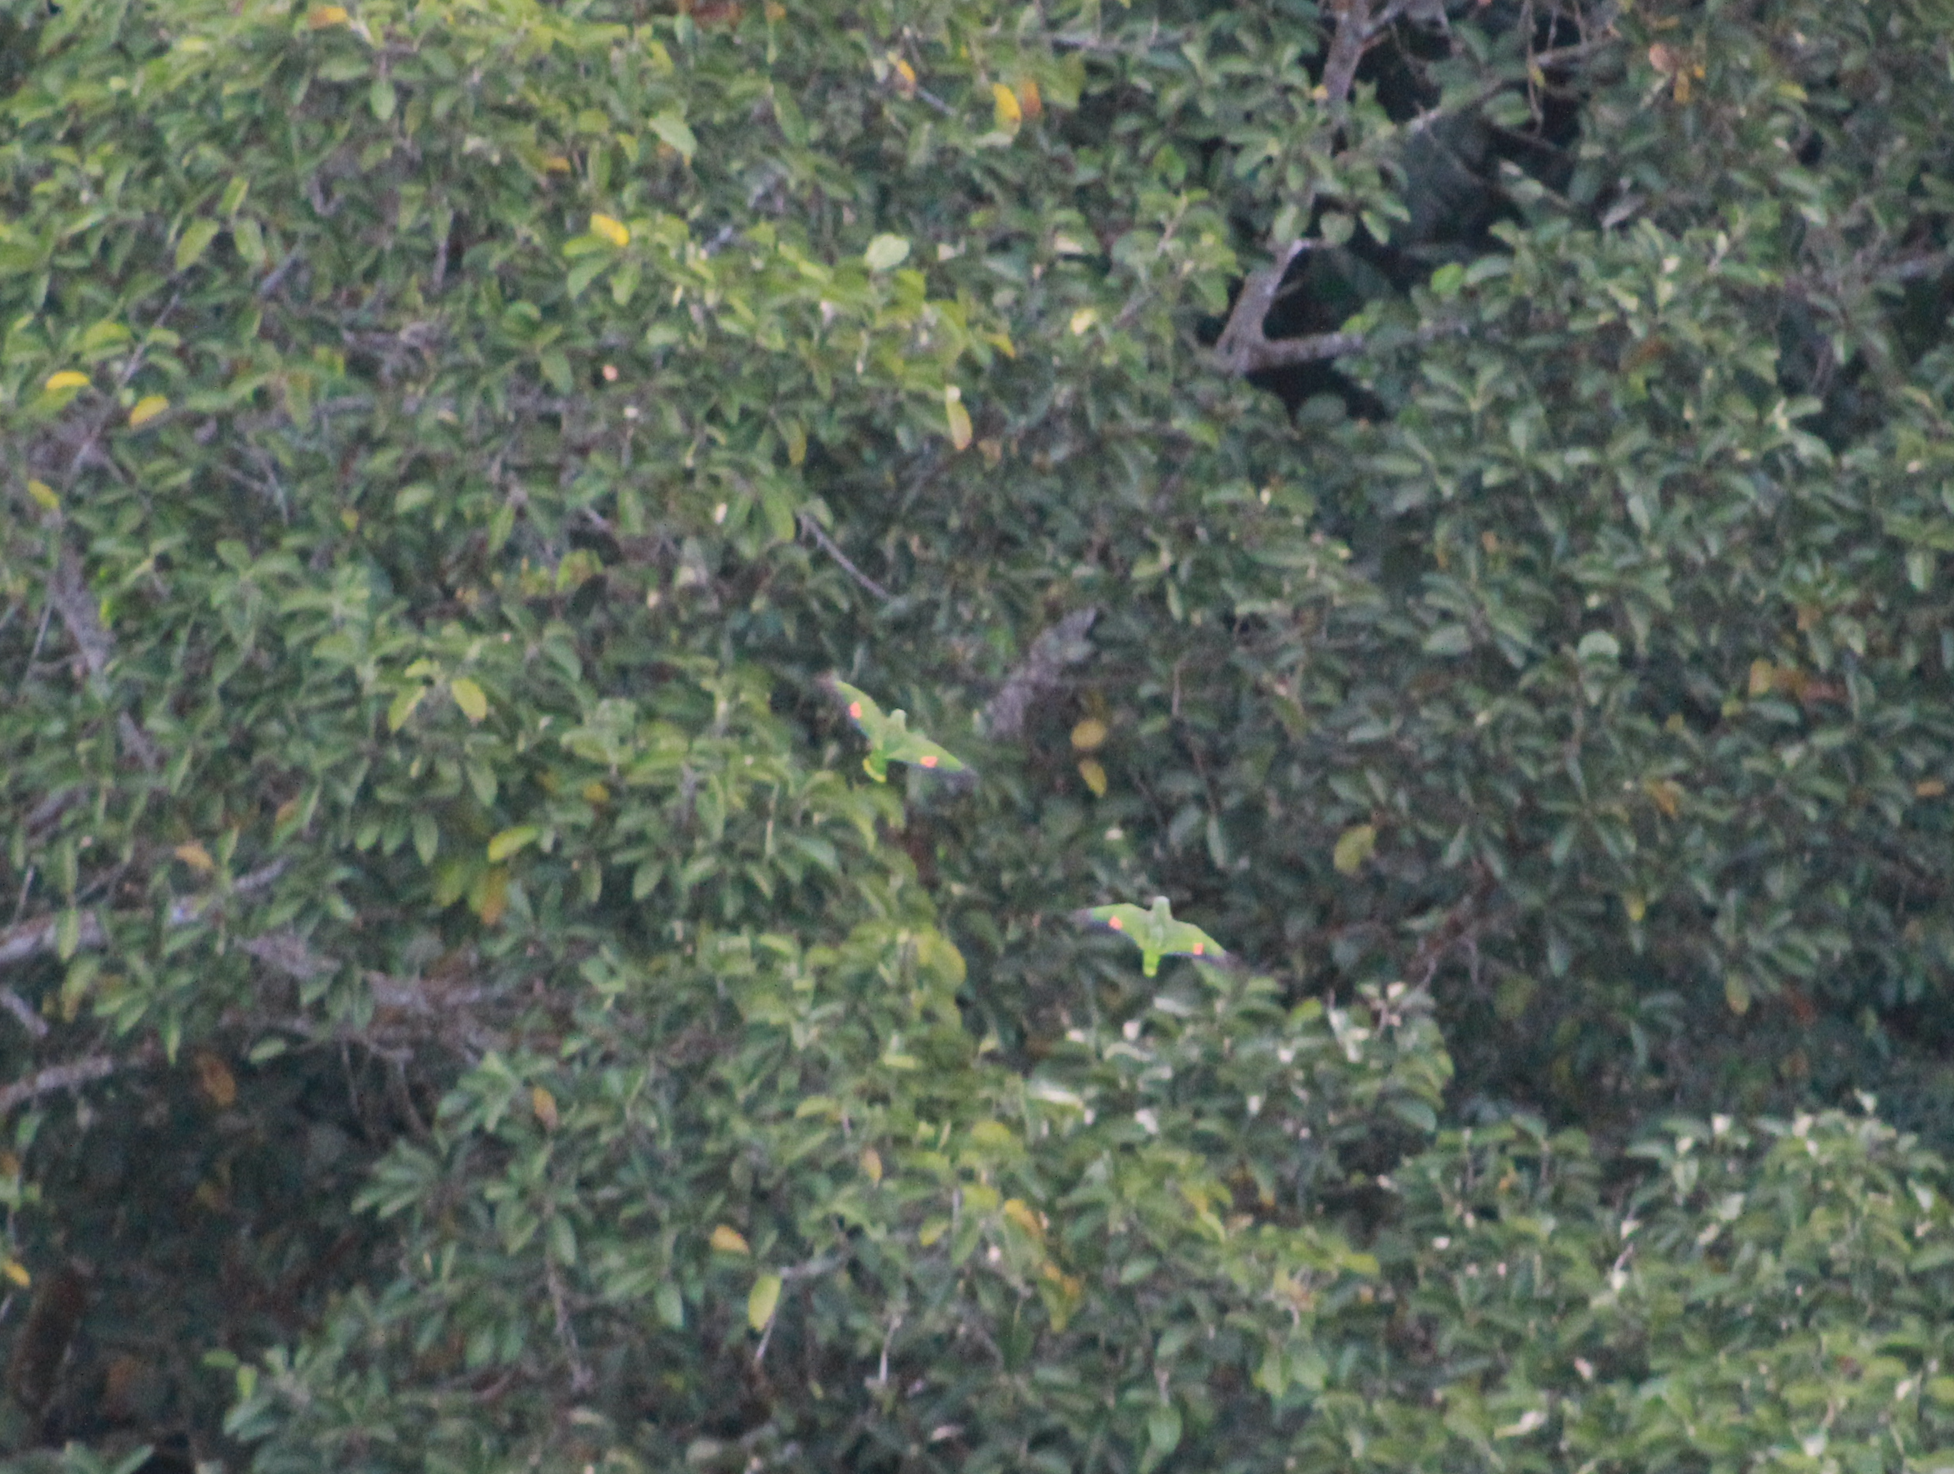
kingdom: Animalia
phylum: Chordata
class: Aves
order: Psittaciformes
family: Psittacidae
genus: Amazona
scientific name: Amazona amazonica
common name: Orange-winged amazon
